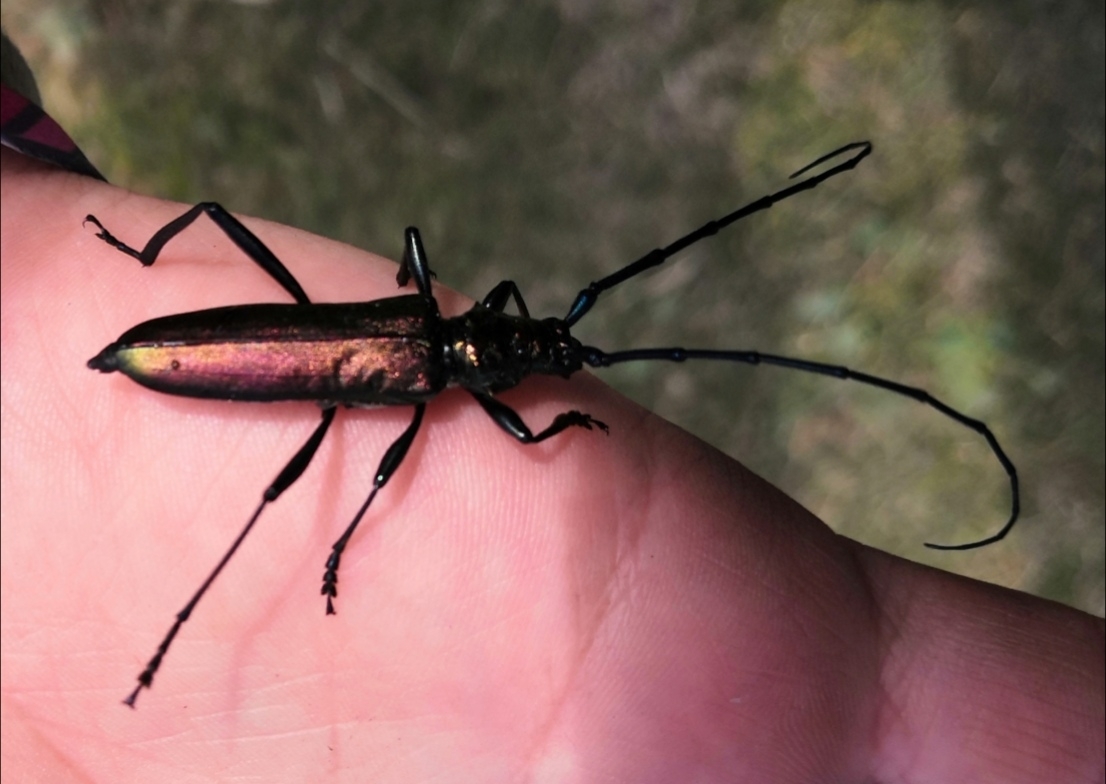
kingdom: Animalia
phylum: Arthropoda
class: Insecta
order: Coleoptera
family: Cerambycidae
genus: Aromia
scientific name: Aromia moschata
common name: Musk beetle
